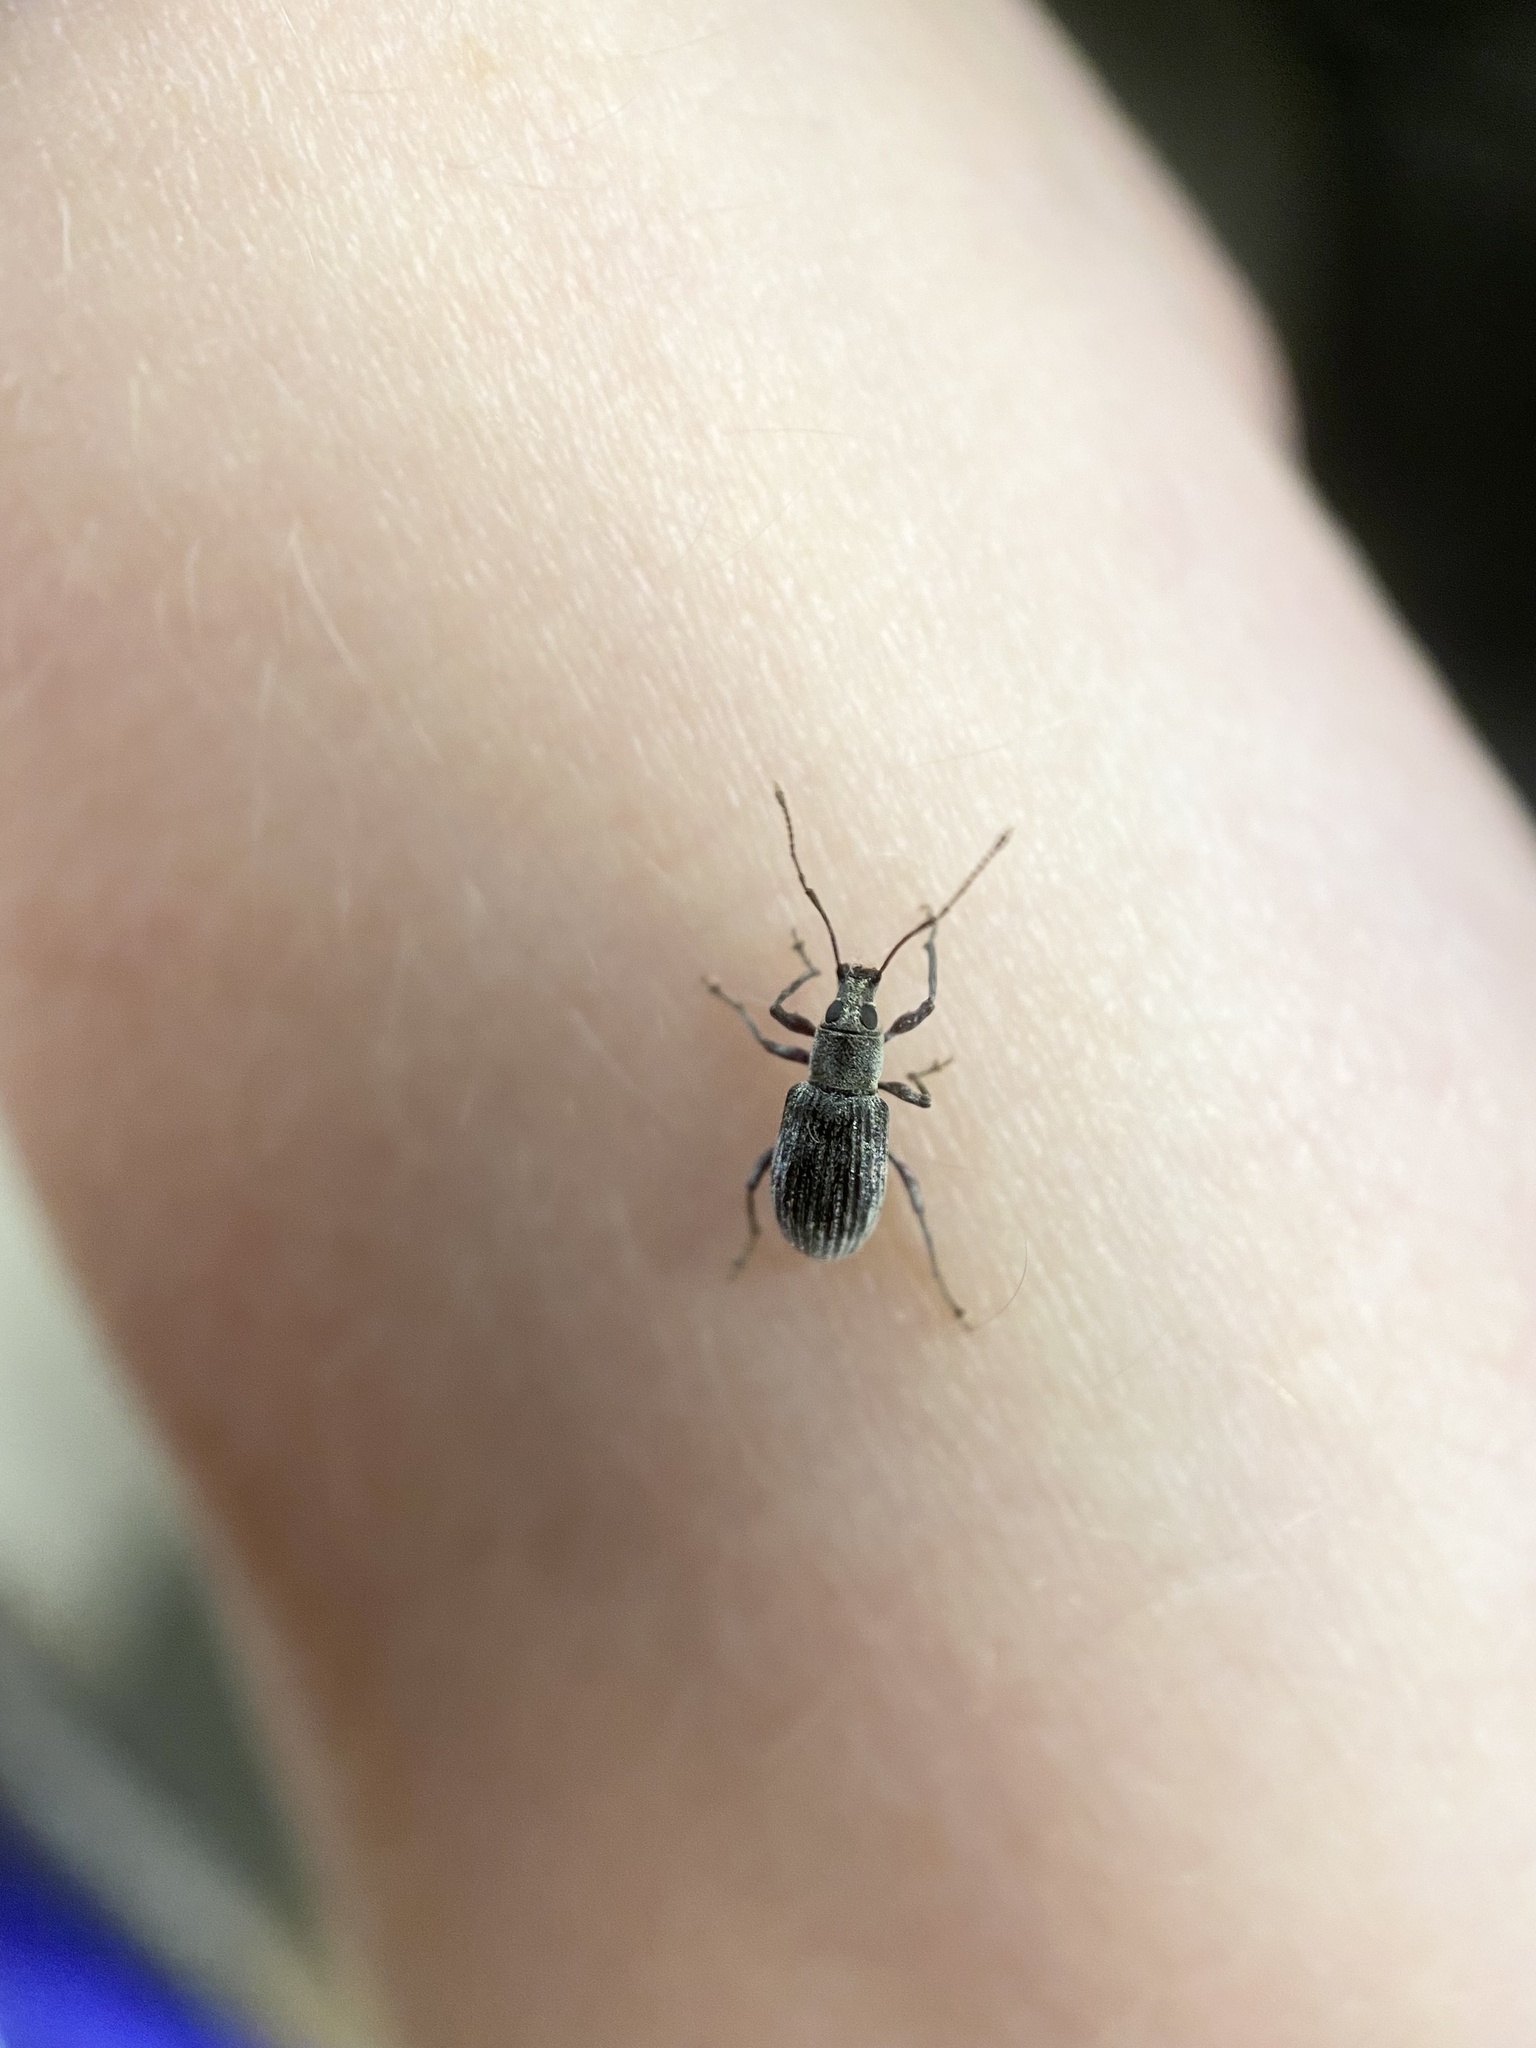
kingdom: Animalia
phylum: Arthropoda
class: Insecta
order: Coleoptera
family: Curculionidae
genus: Cyrtepistomus
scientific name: Cyrtepistomus castaneus
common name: Weevil
